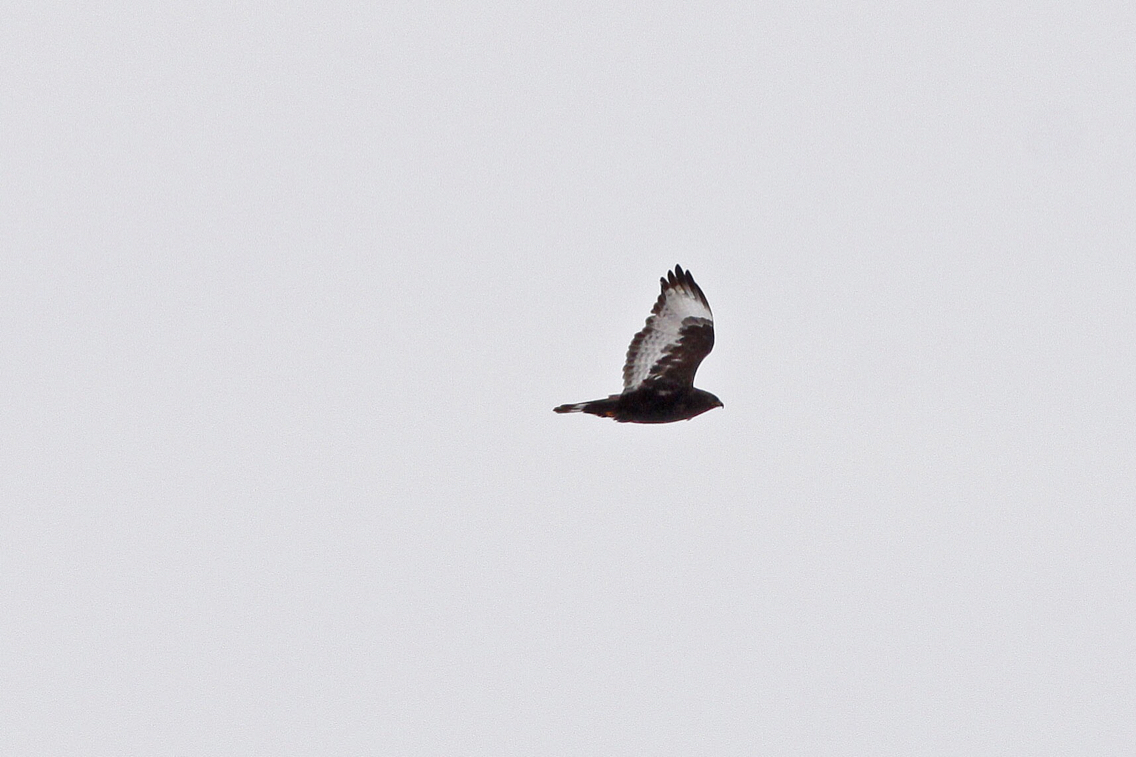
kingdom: Animalia
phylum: Chordata
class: Aves
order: Accipitriformes
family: Accipitridae
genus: Buteo
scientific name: Buteo lagopus
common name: Rough-legged buzzard
